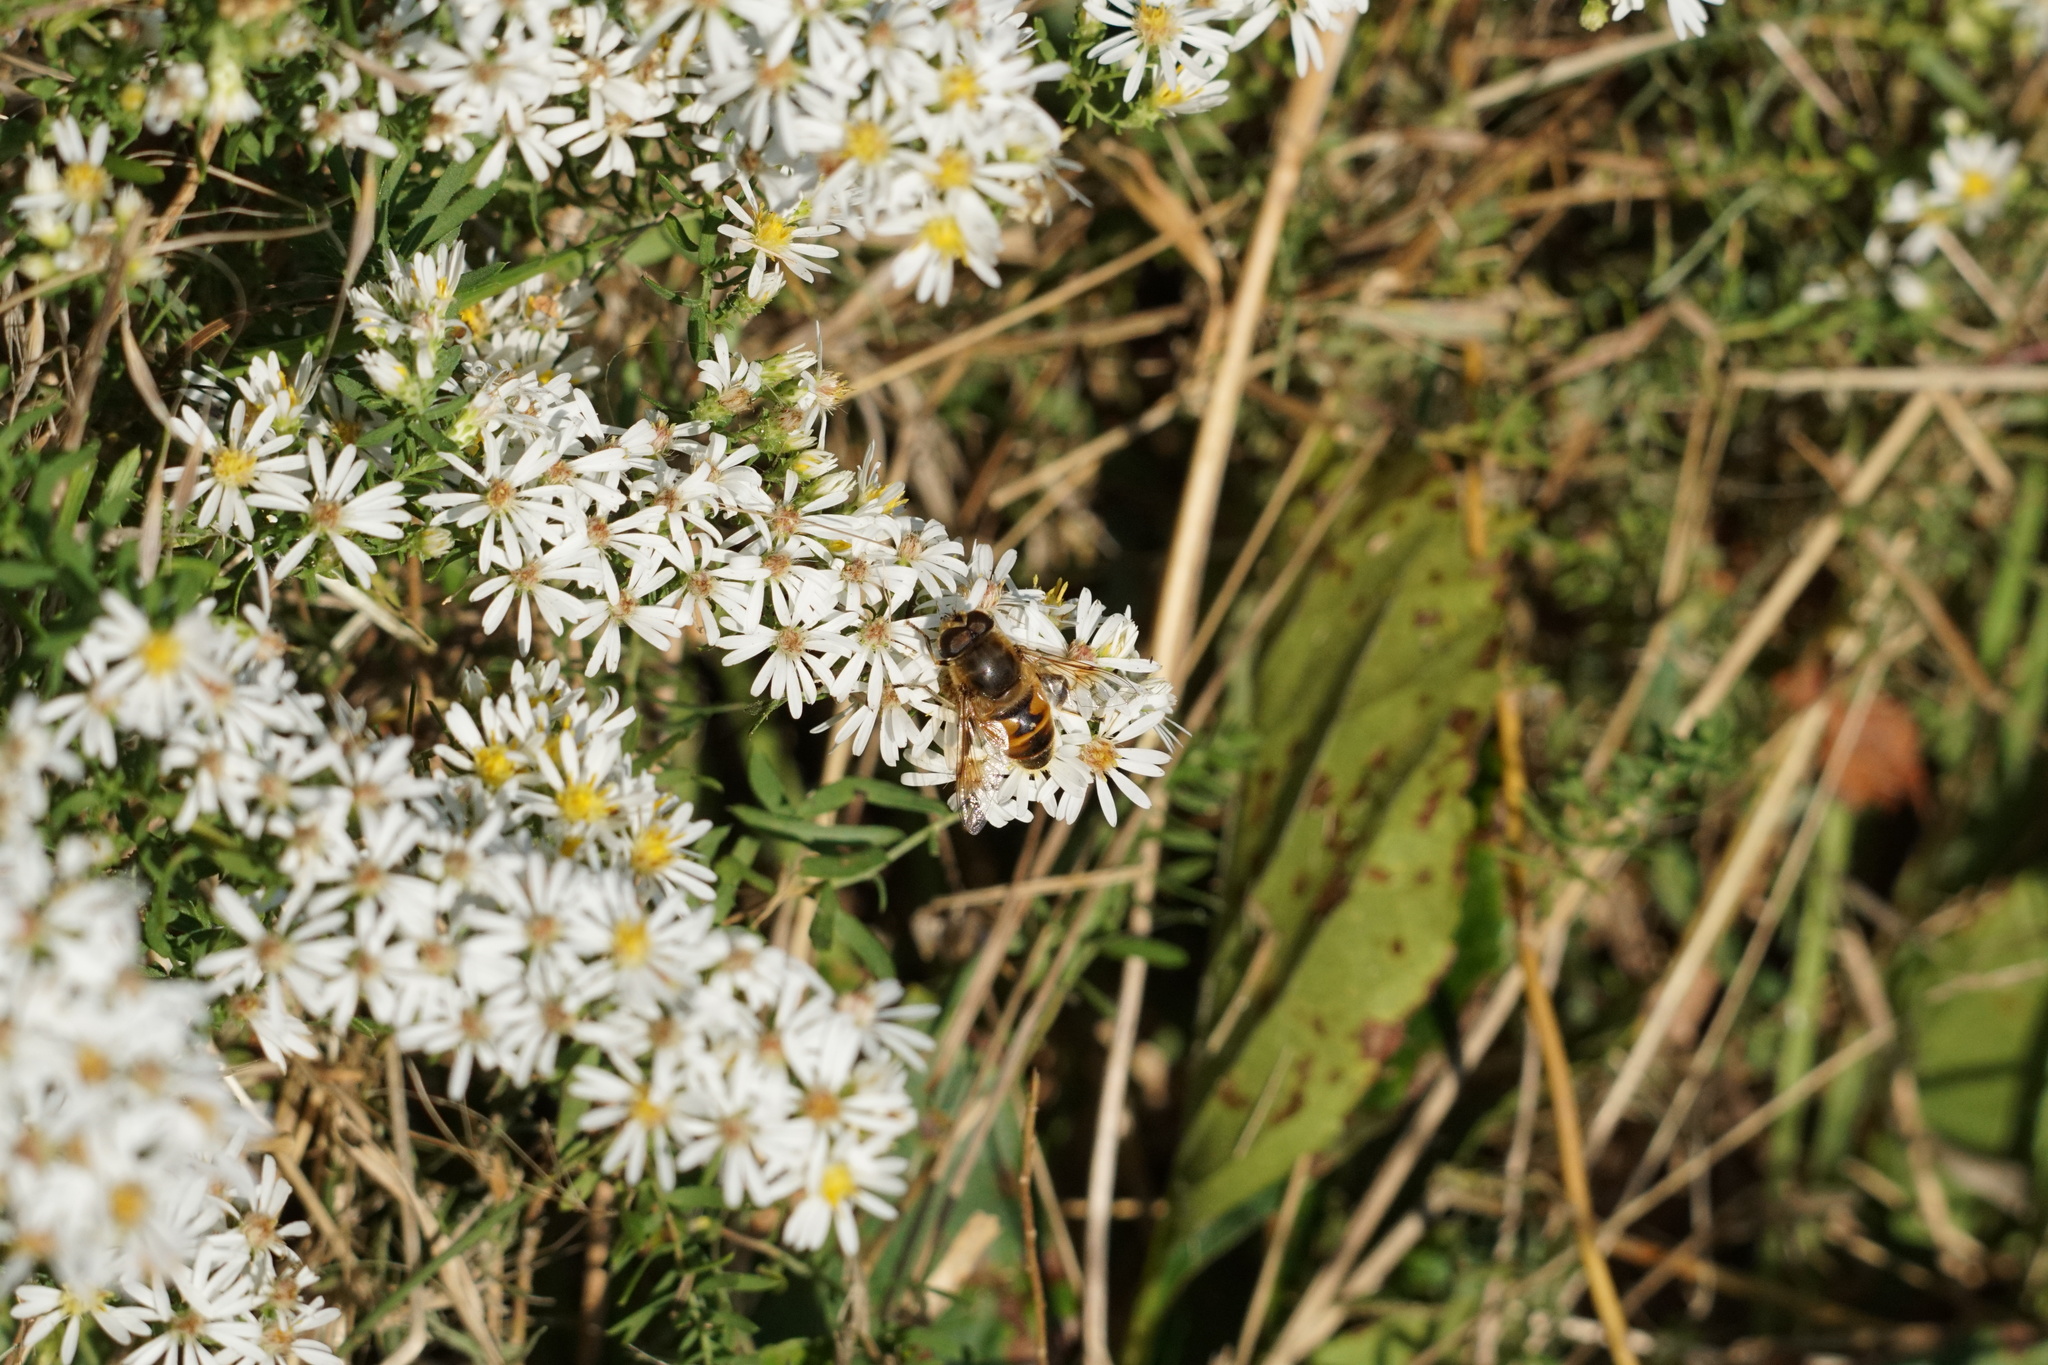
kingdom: Animalia
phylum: Arthropoda
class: Insecta
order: Diptera
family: Syrphidae
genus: Eristalis
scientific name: Eristalis tenax
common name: Drone fly
